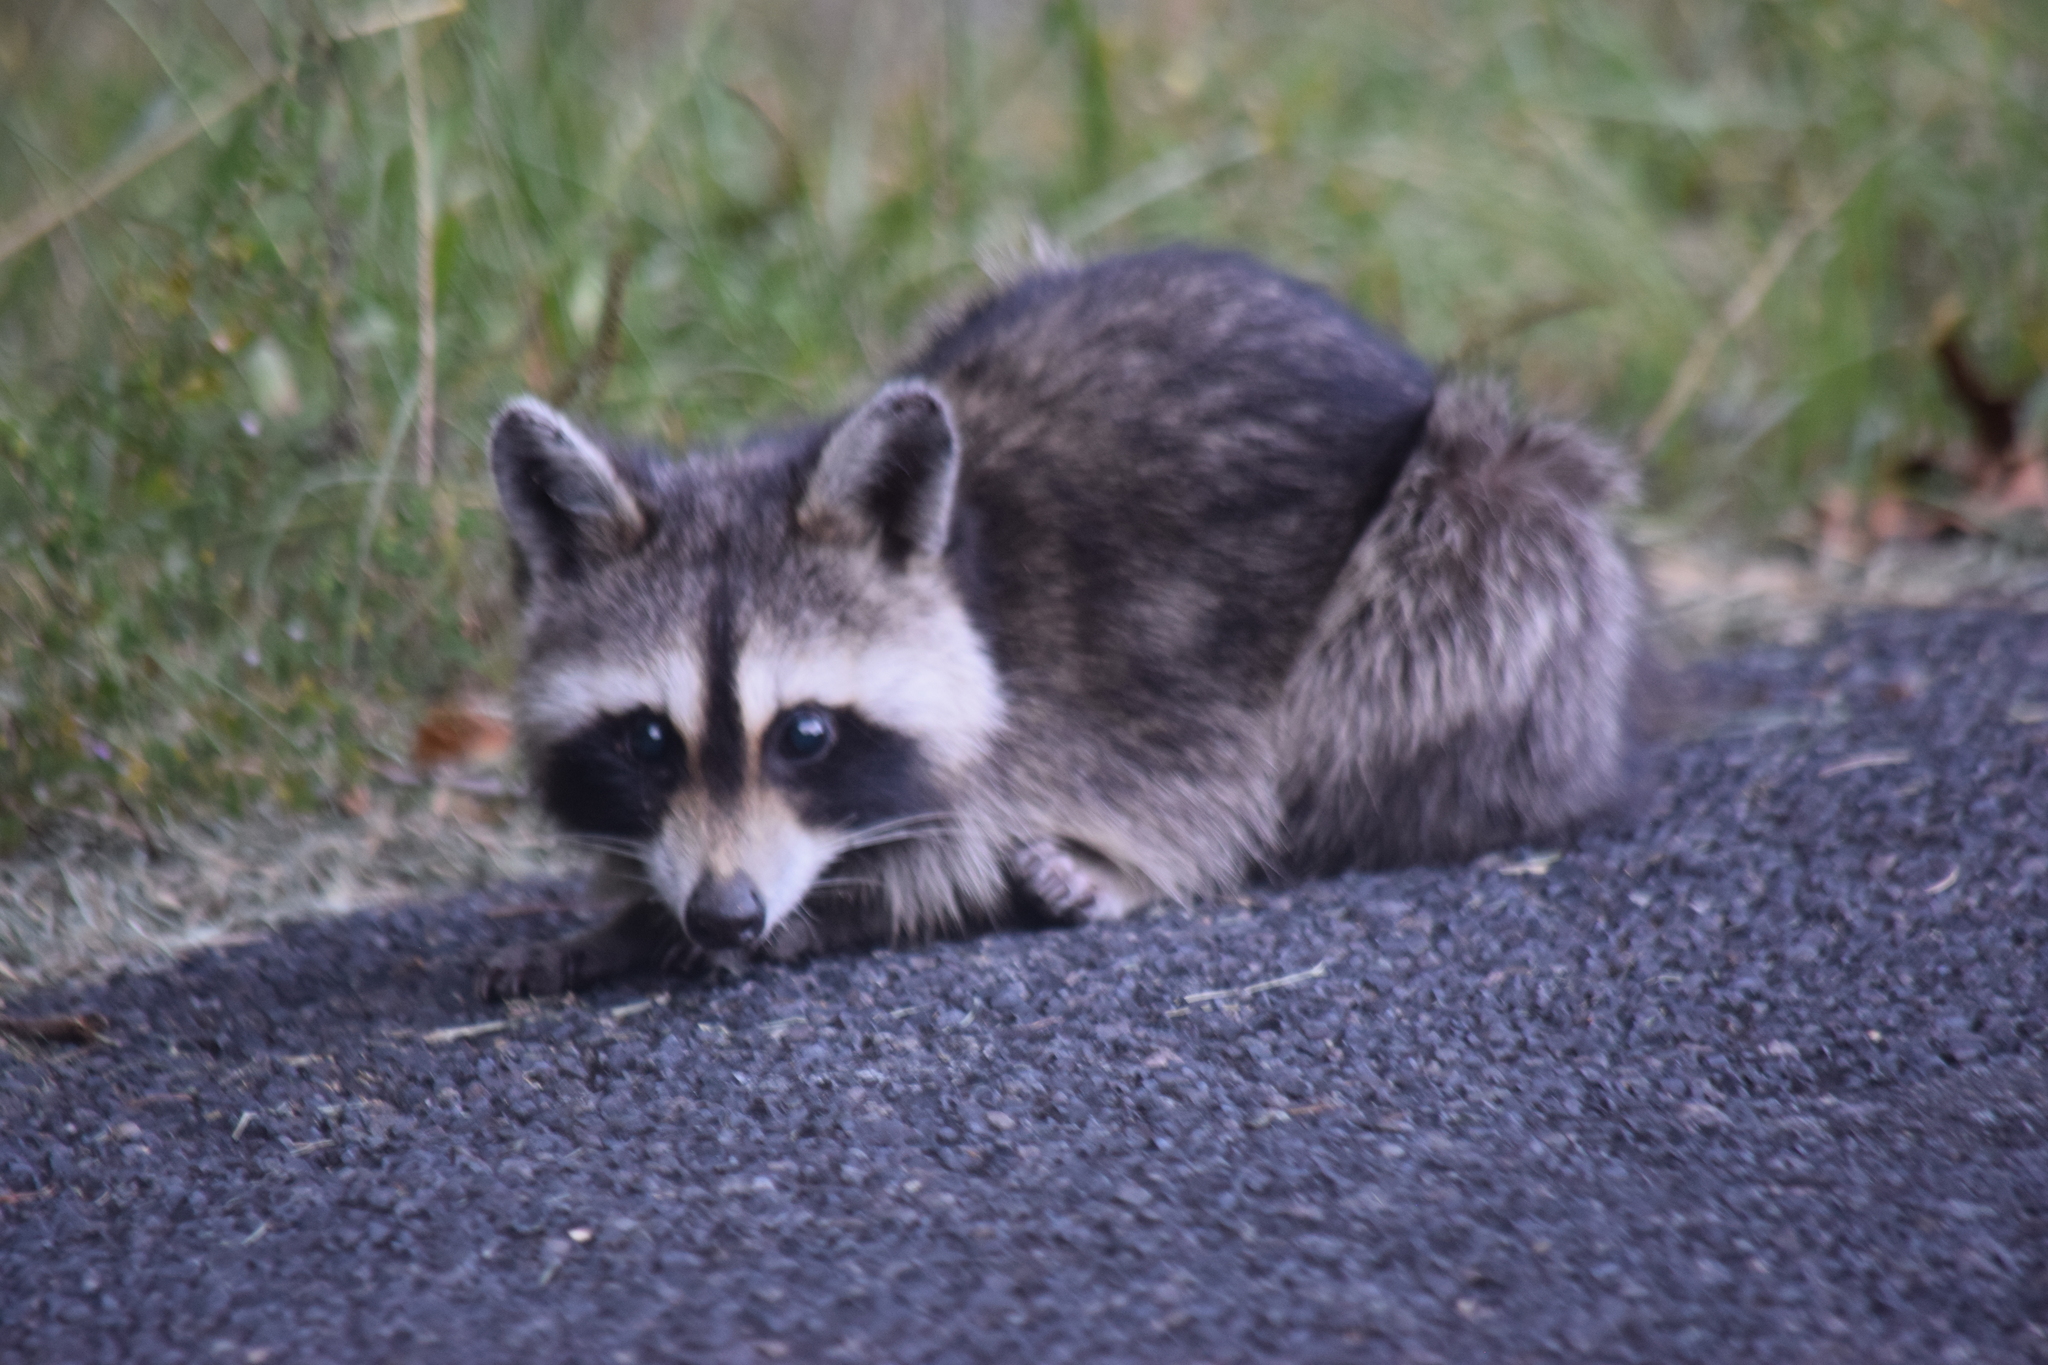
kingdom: Animalia
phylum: Chordata
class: Mammalia
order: Carnivora
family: Procyonidae
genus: Procyon
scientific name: Procyon lotor
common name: Raccoon
